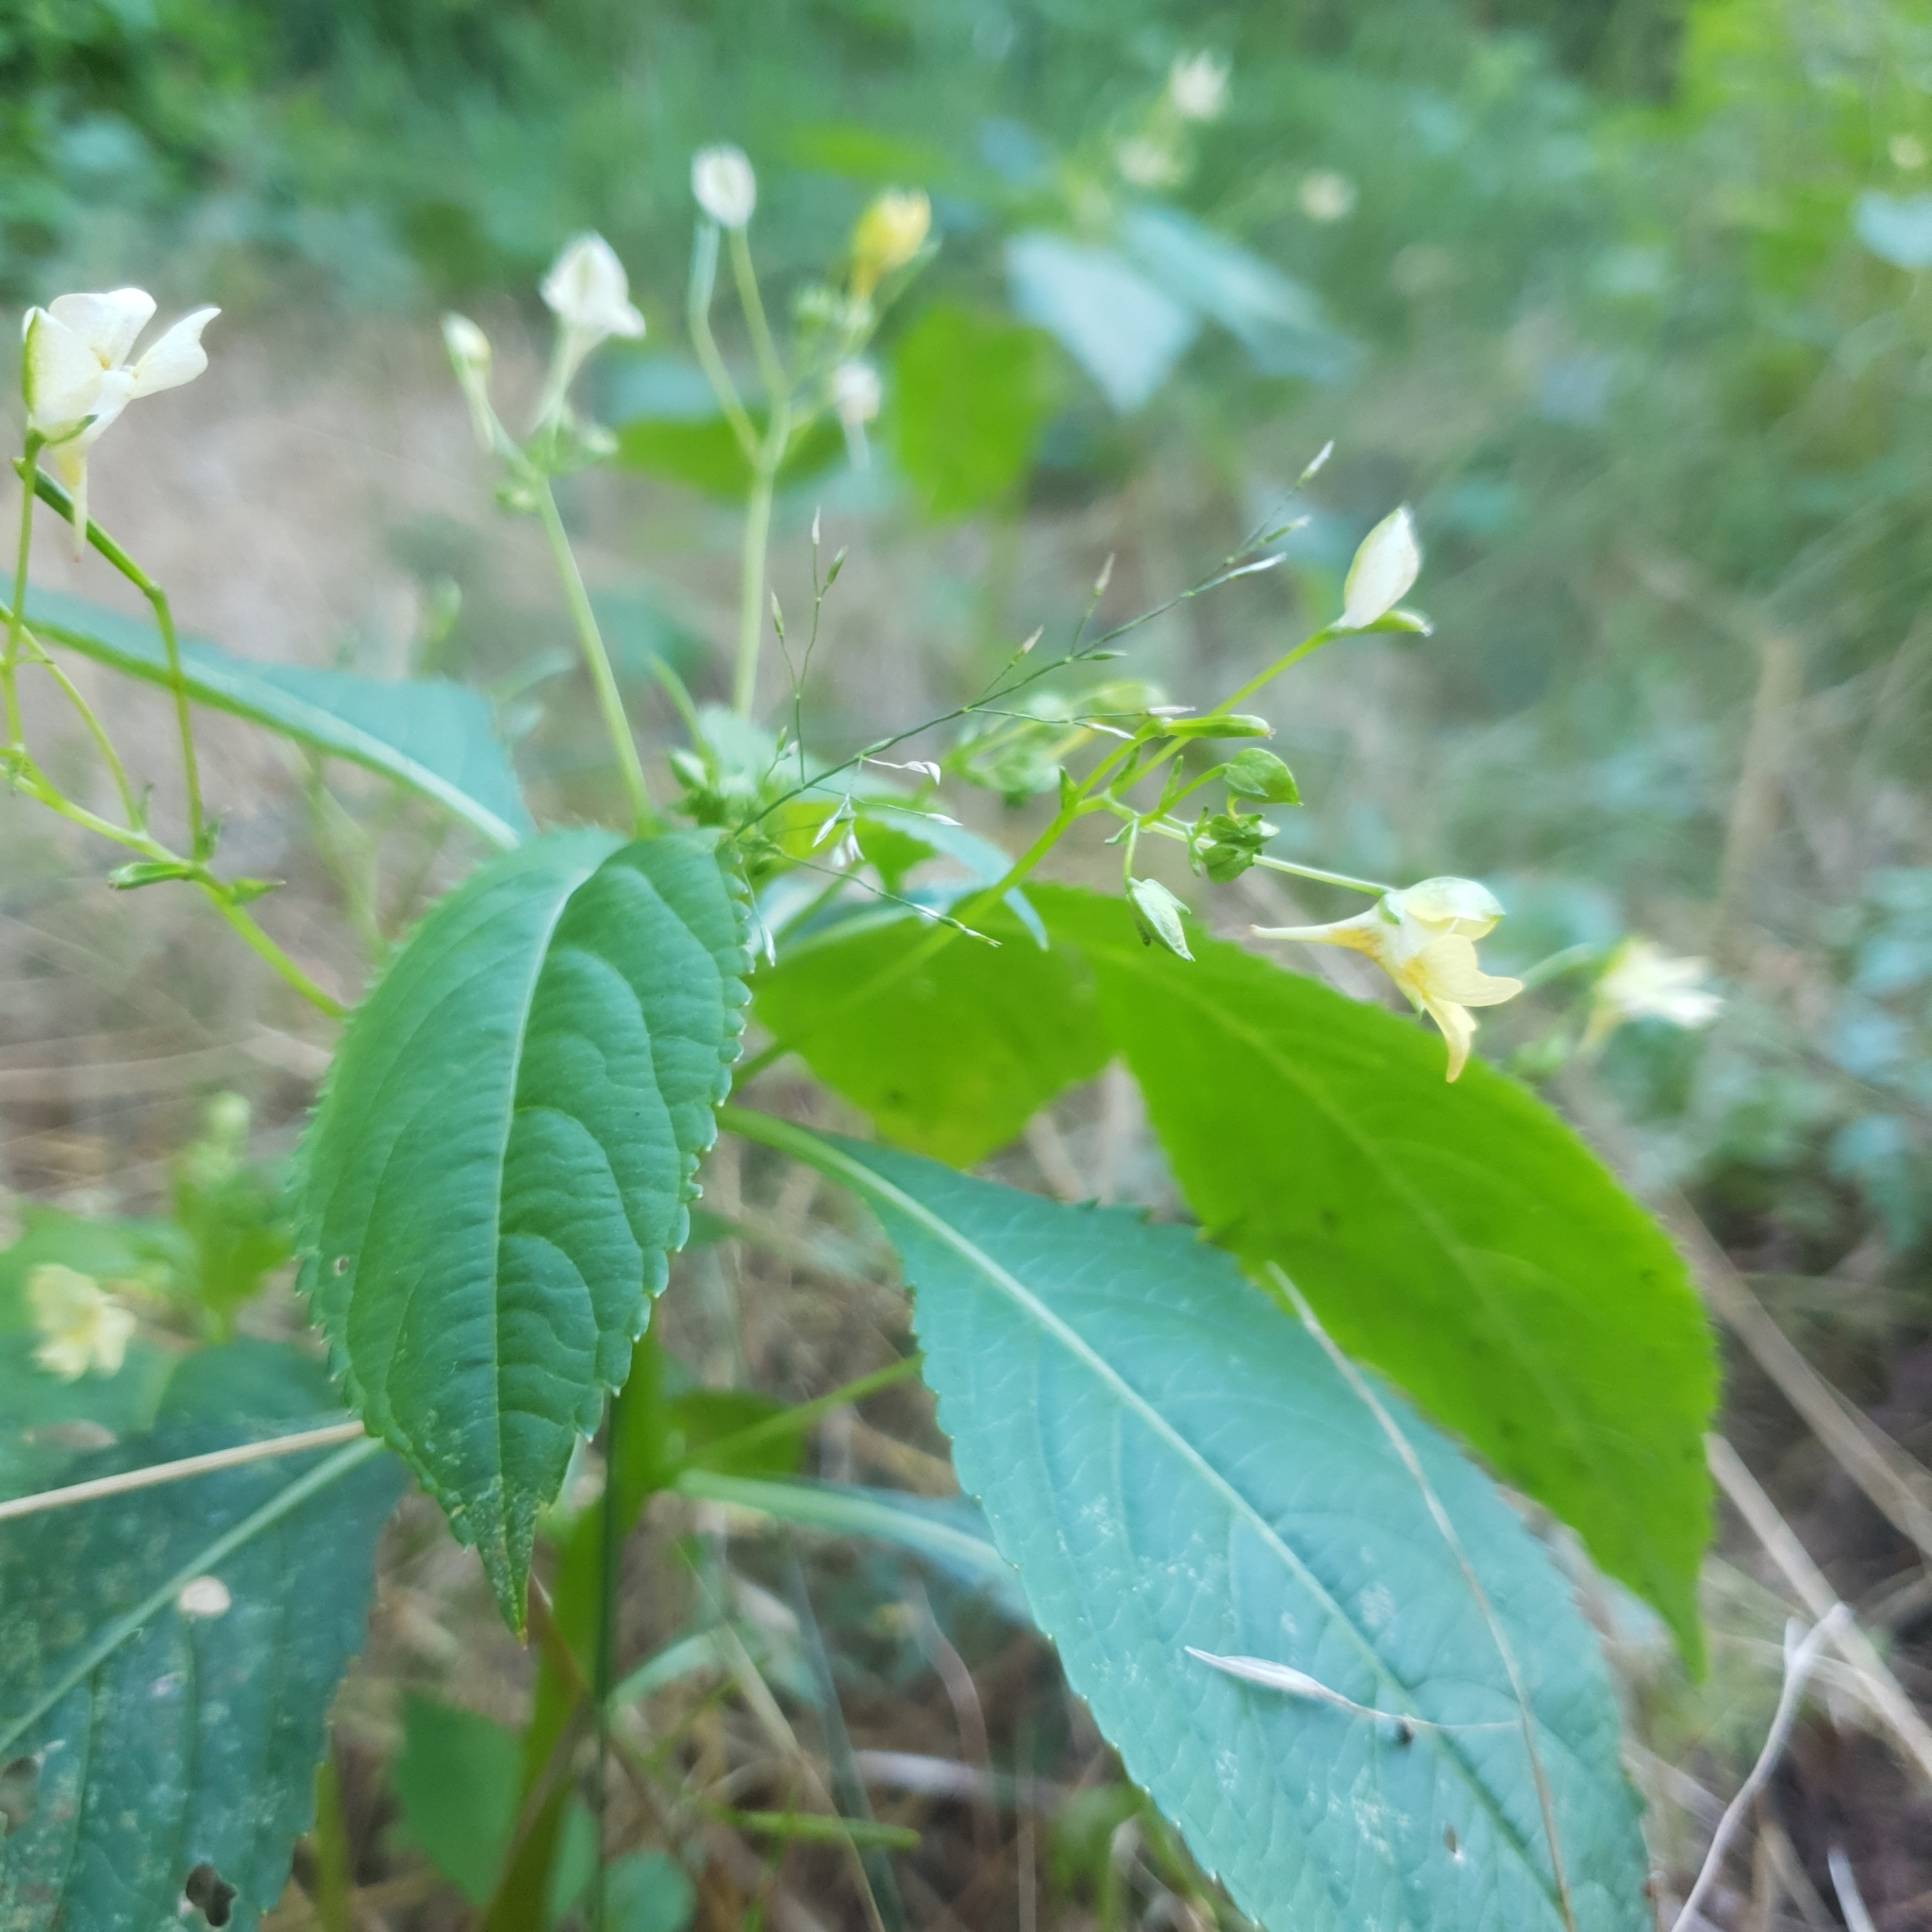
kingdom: Plantae
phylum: Tracheophyta
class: Magnoliopsida
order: Ericales
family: Balsaminaceae
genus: Impatiens
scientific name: Impatiens parviflora
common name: Small balsam
